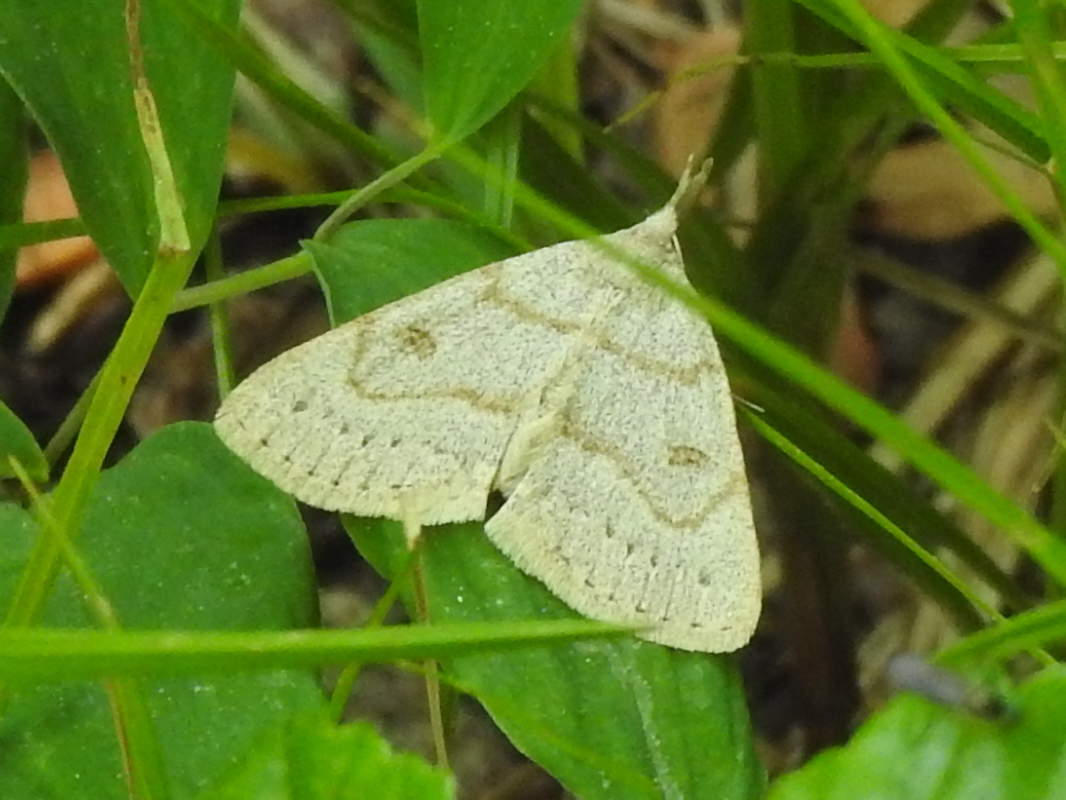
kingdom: Animalia
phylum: Arthropoda
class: Insecta
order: Lepidoptera
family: Erebidae
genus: Macrochilo
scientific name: Macrochilo morbidalis
